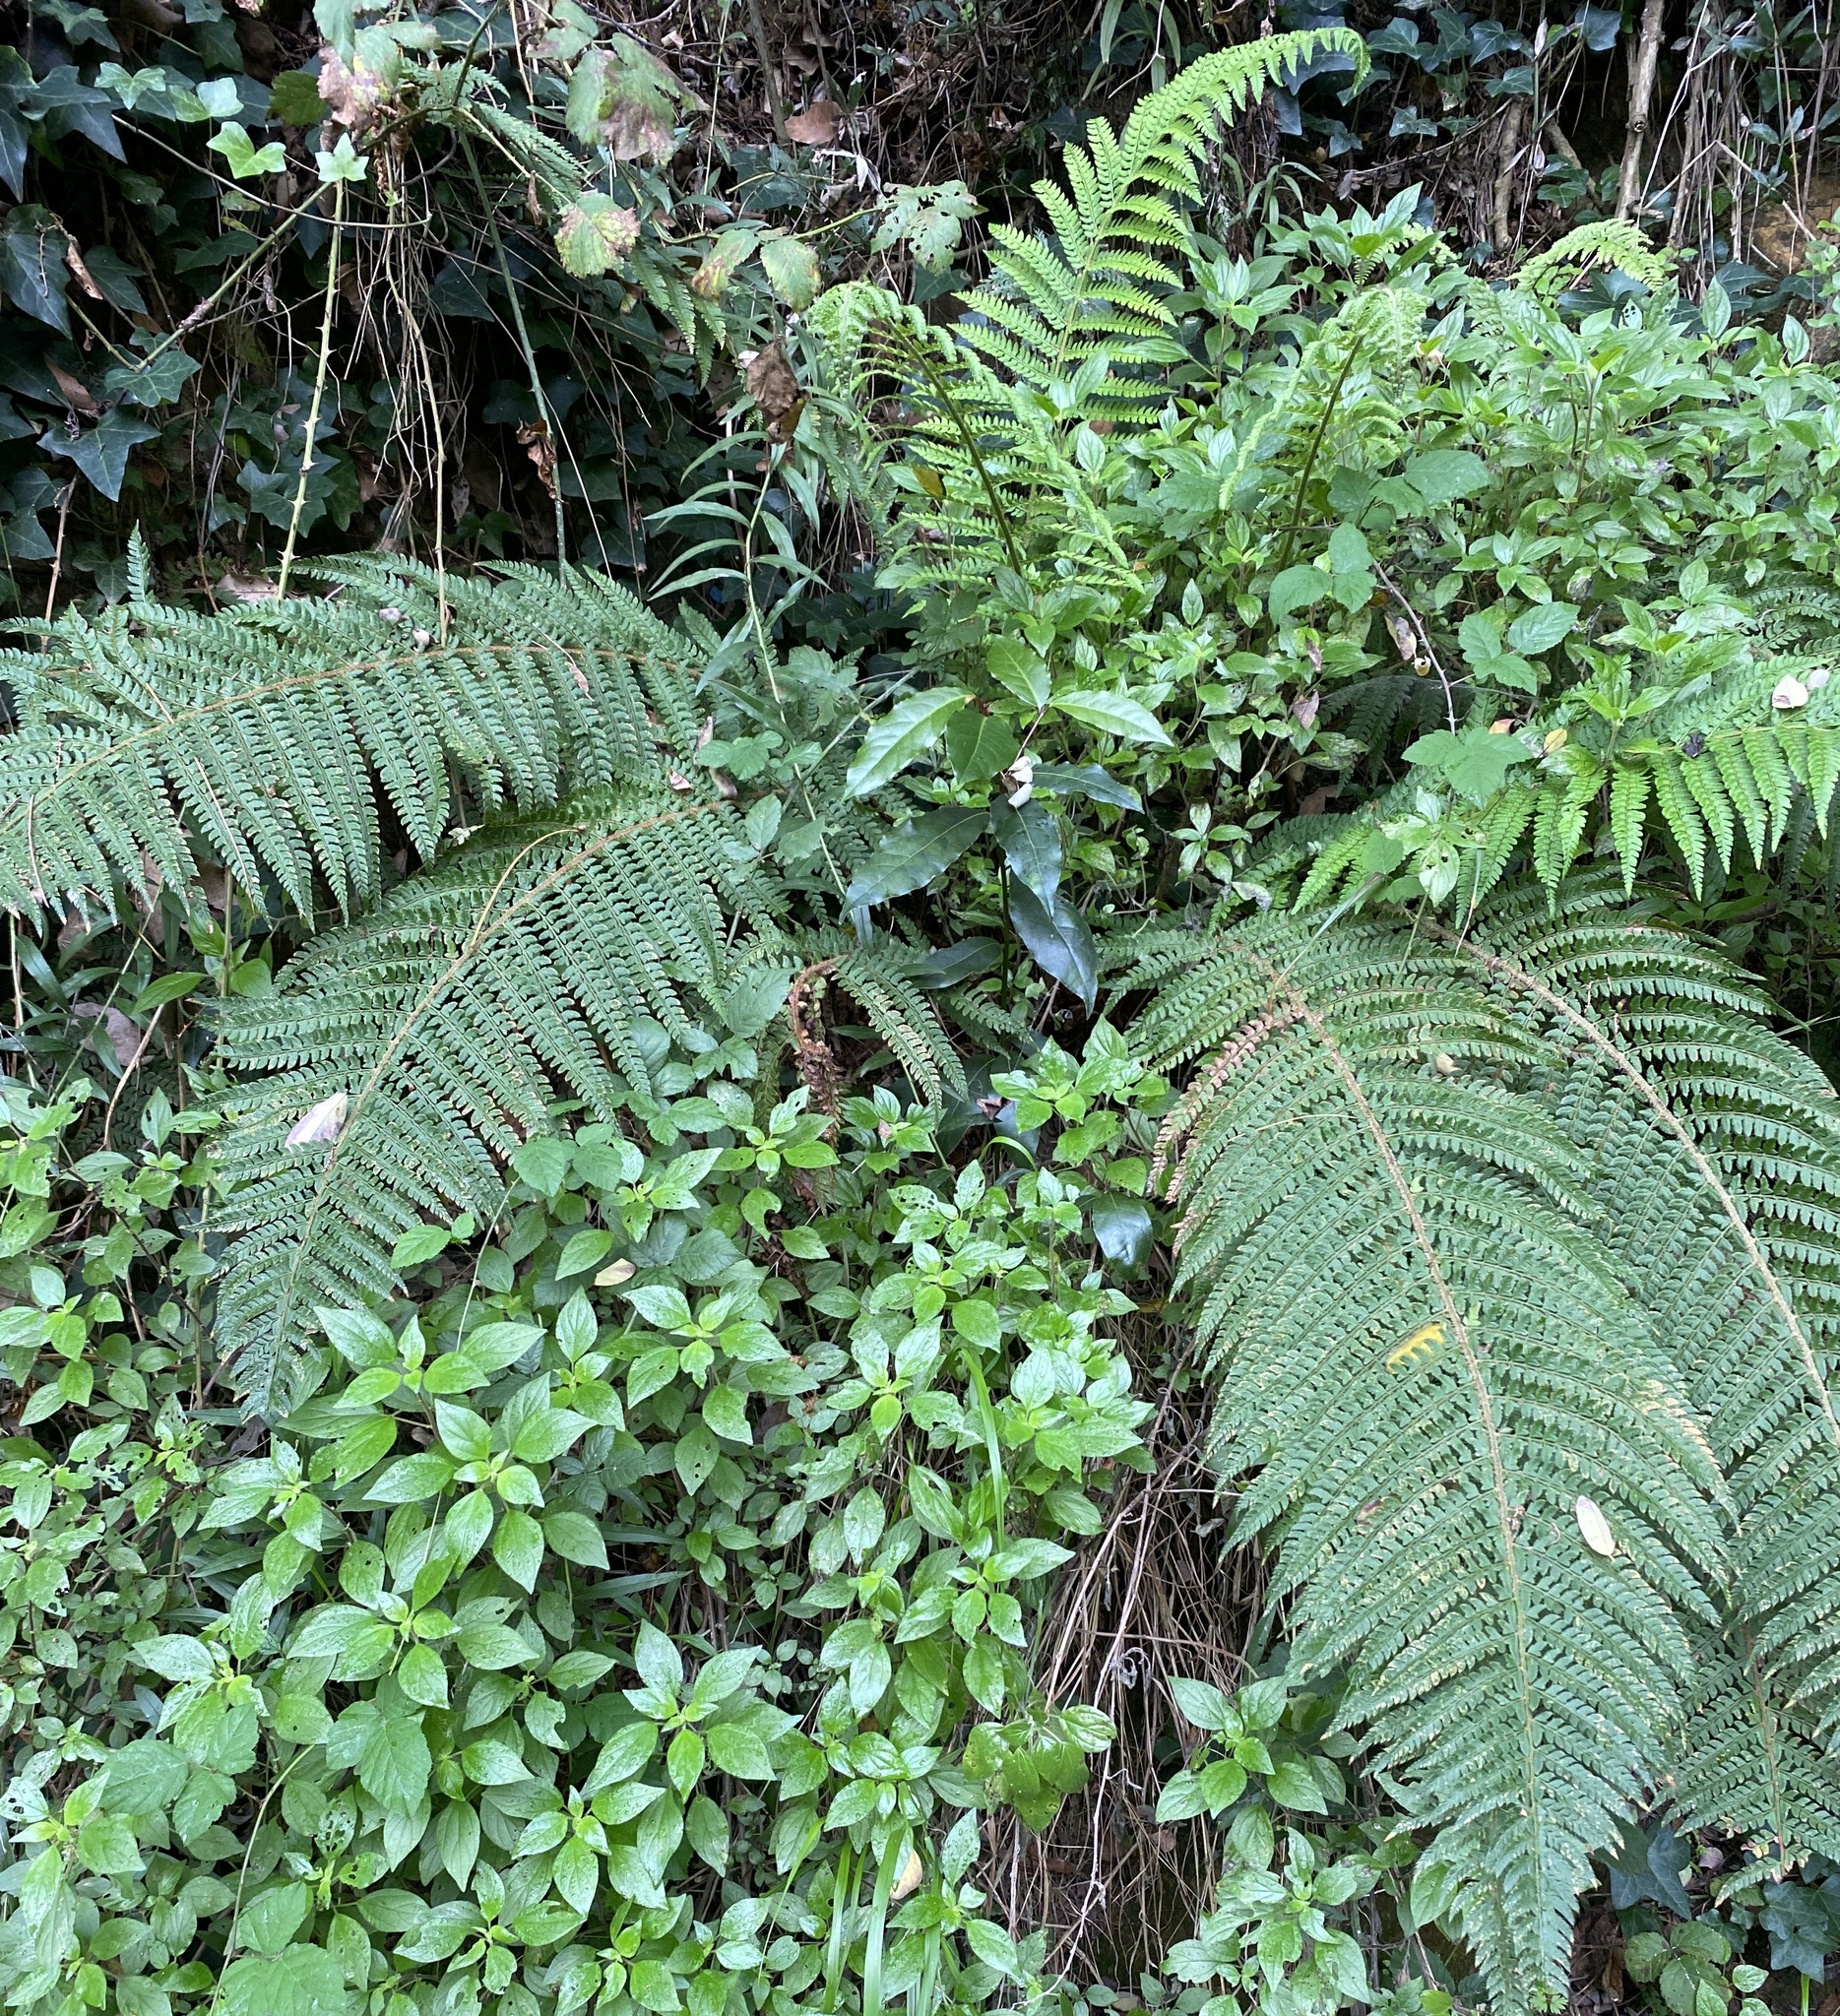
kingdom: Plantae
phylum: Tracheophyta
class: Polypodiopsida
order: Polypodiales
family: Dryopteridaceae
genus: Polystichum
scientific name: Polystichum setiferum
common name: Soft shield-fern
